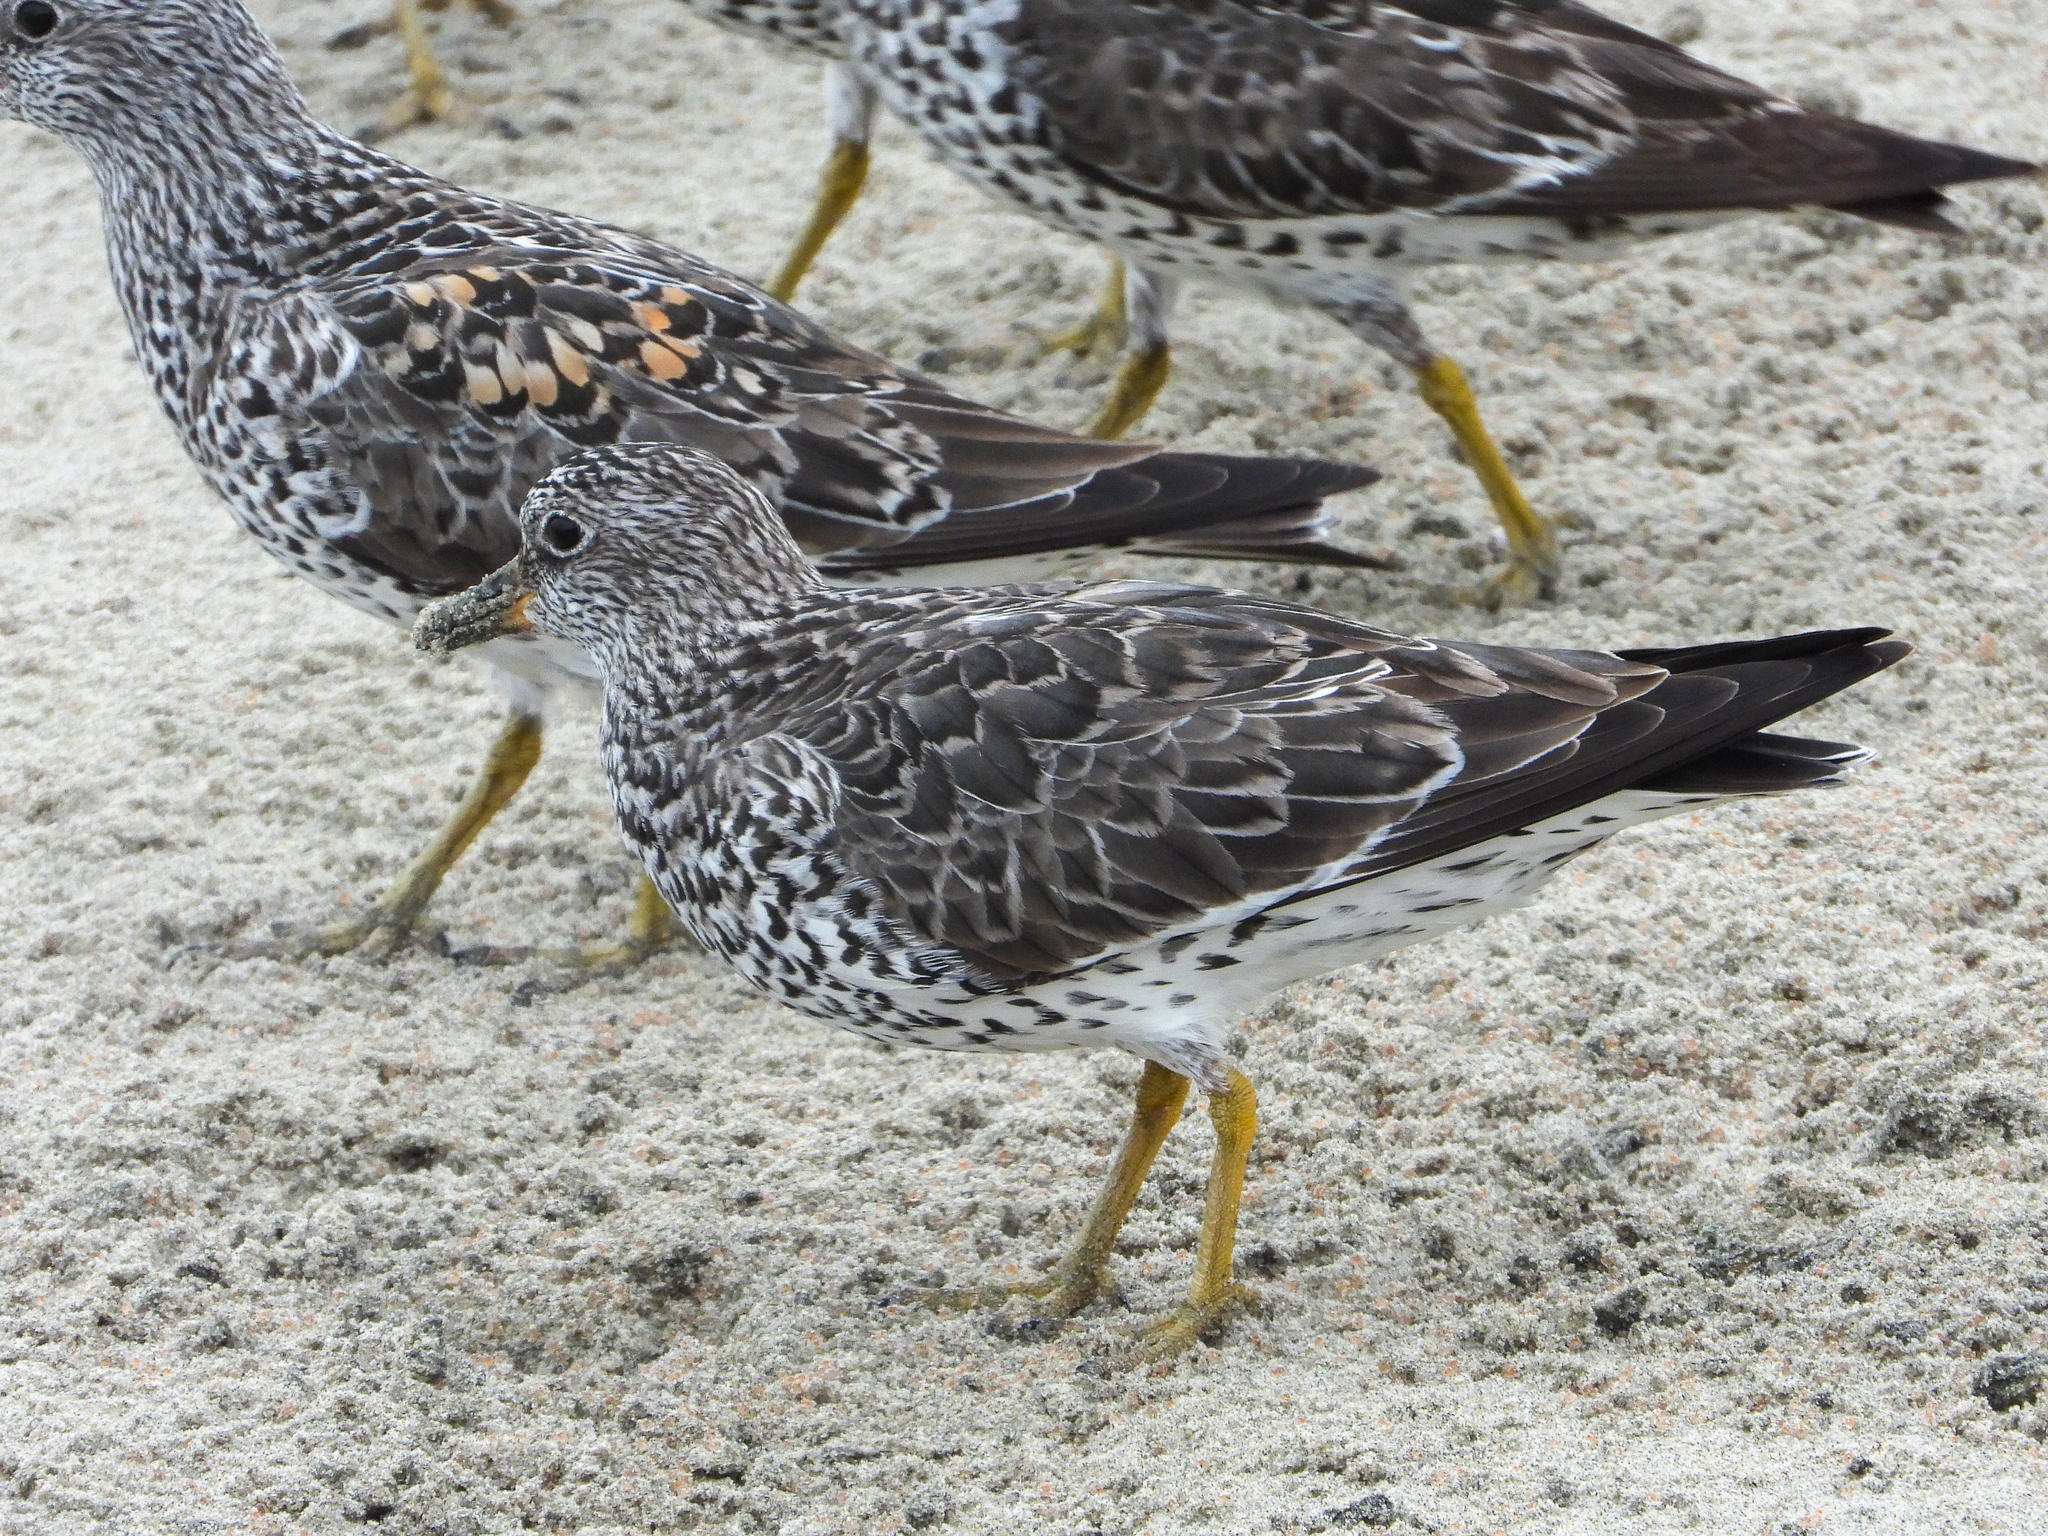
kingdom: Animalia
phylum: Chordata
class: Aves
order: Charadriiformes
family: Scolopacidae
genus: Calidris
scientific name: Calidris virgata
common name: Surfbird
